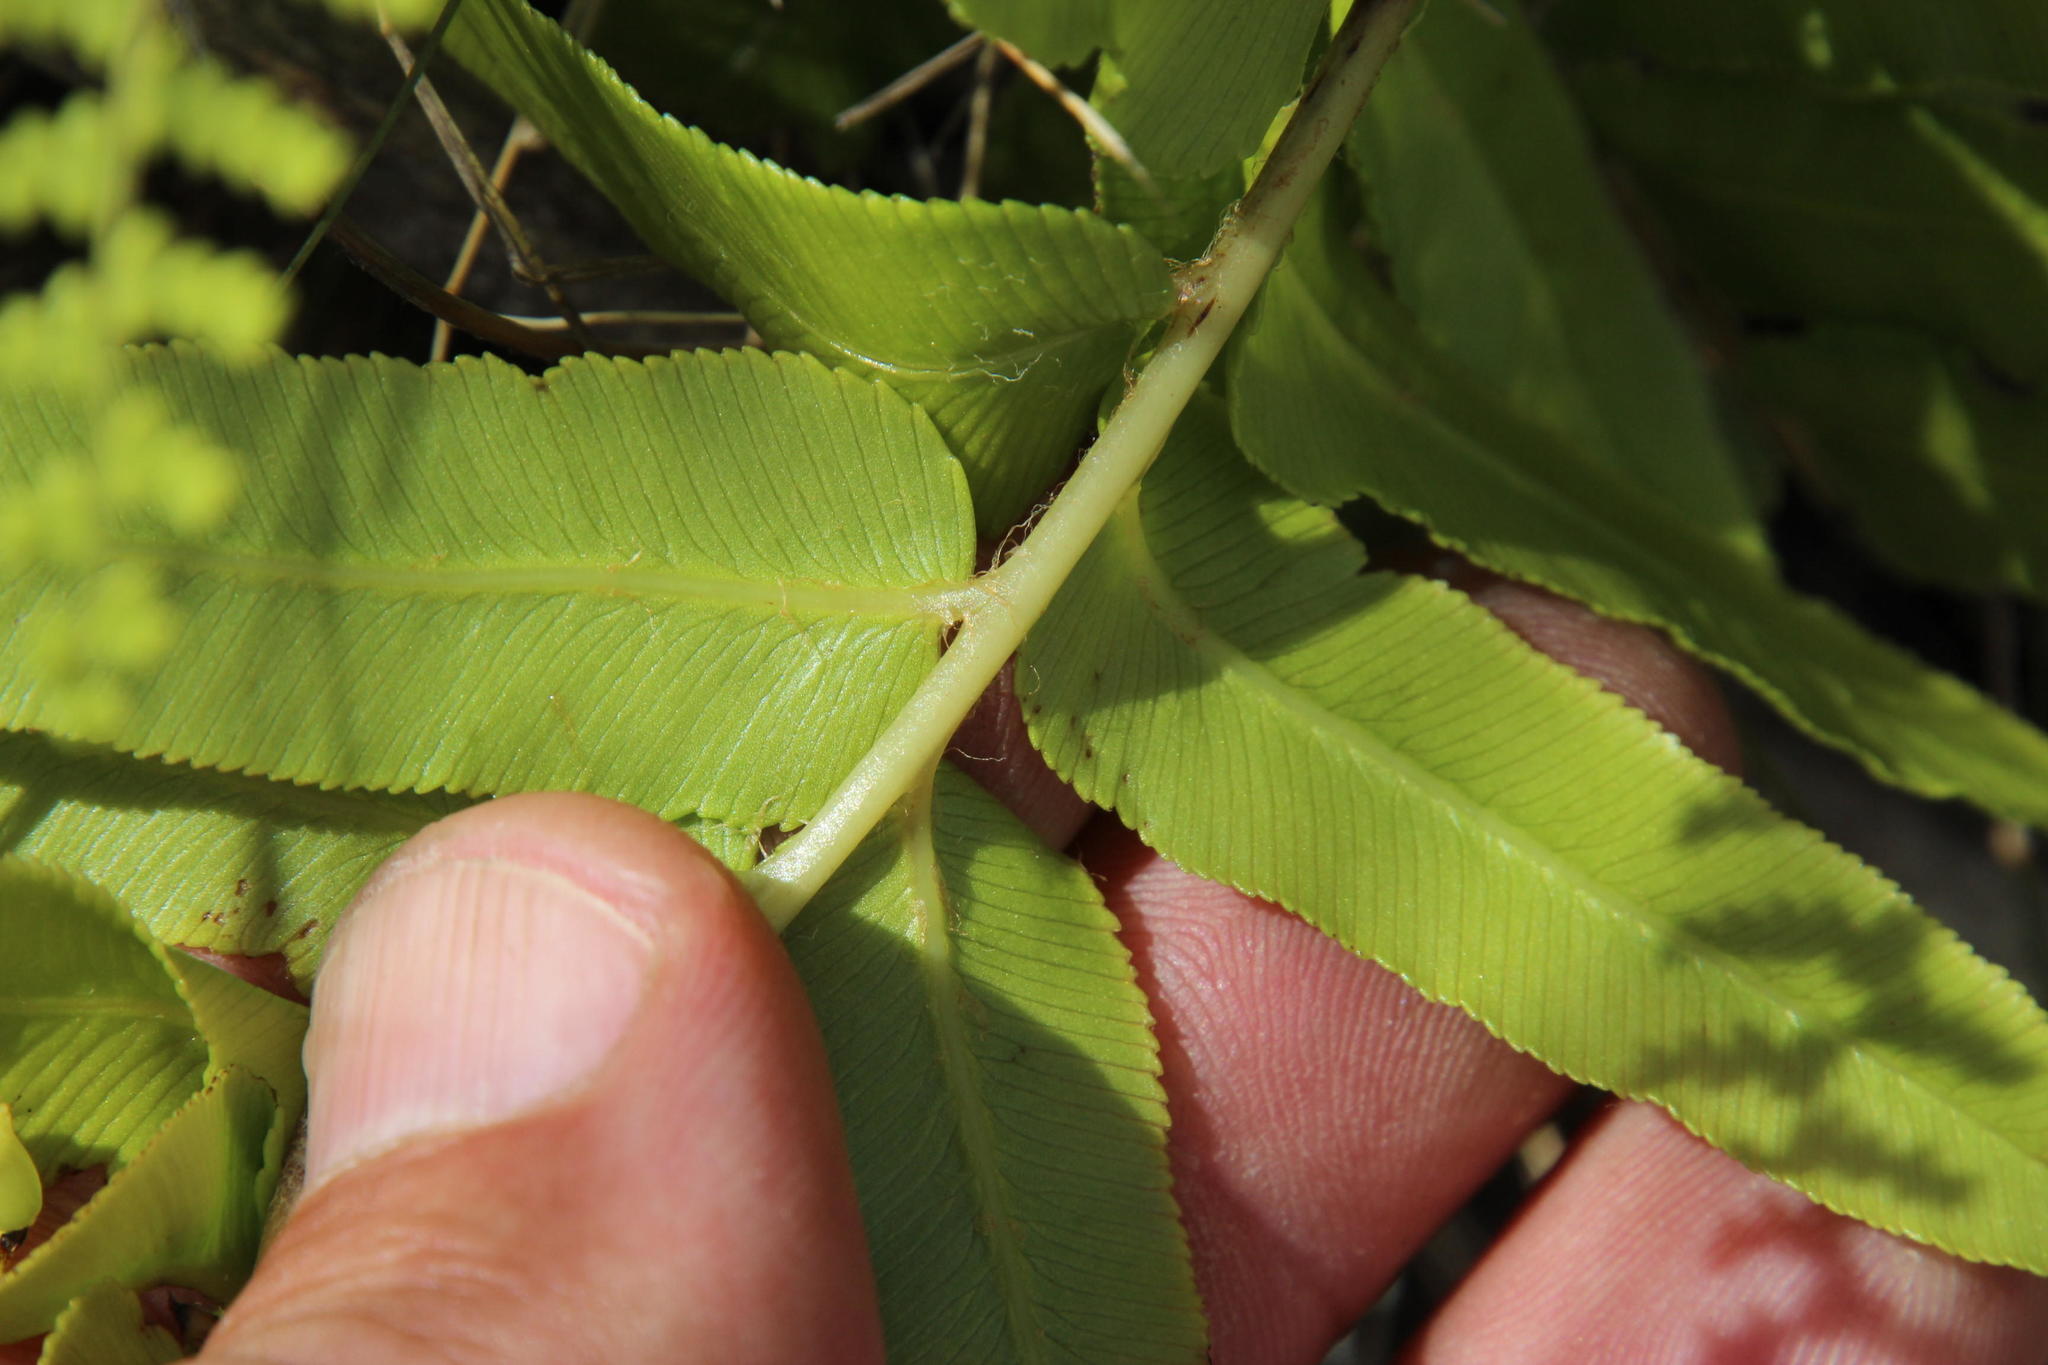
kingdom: Plantae
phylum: Tracheophyta
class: Polypodiopsida
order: Polypodiales
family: Blechnaceae
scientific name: Blechnaceae
